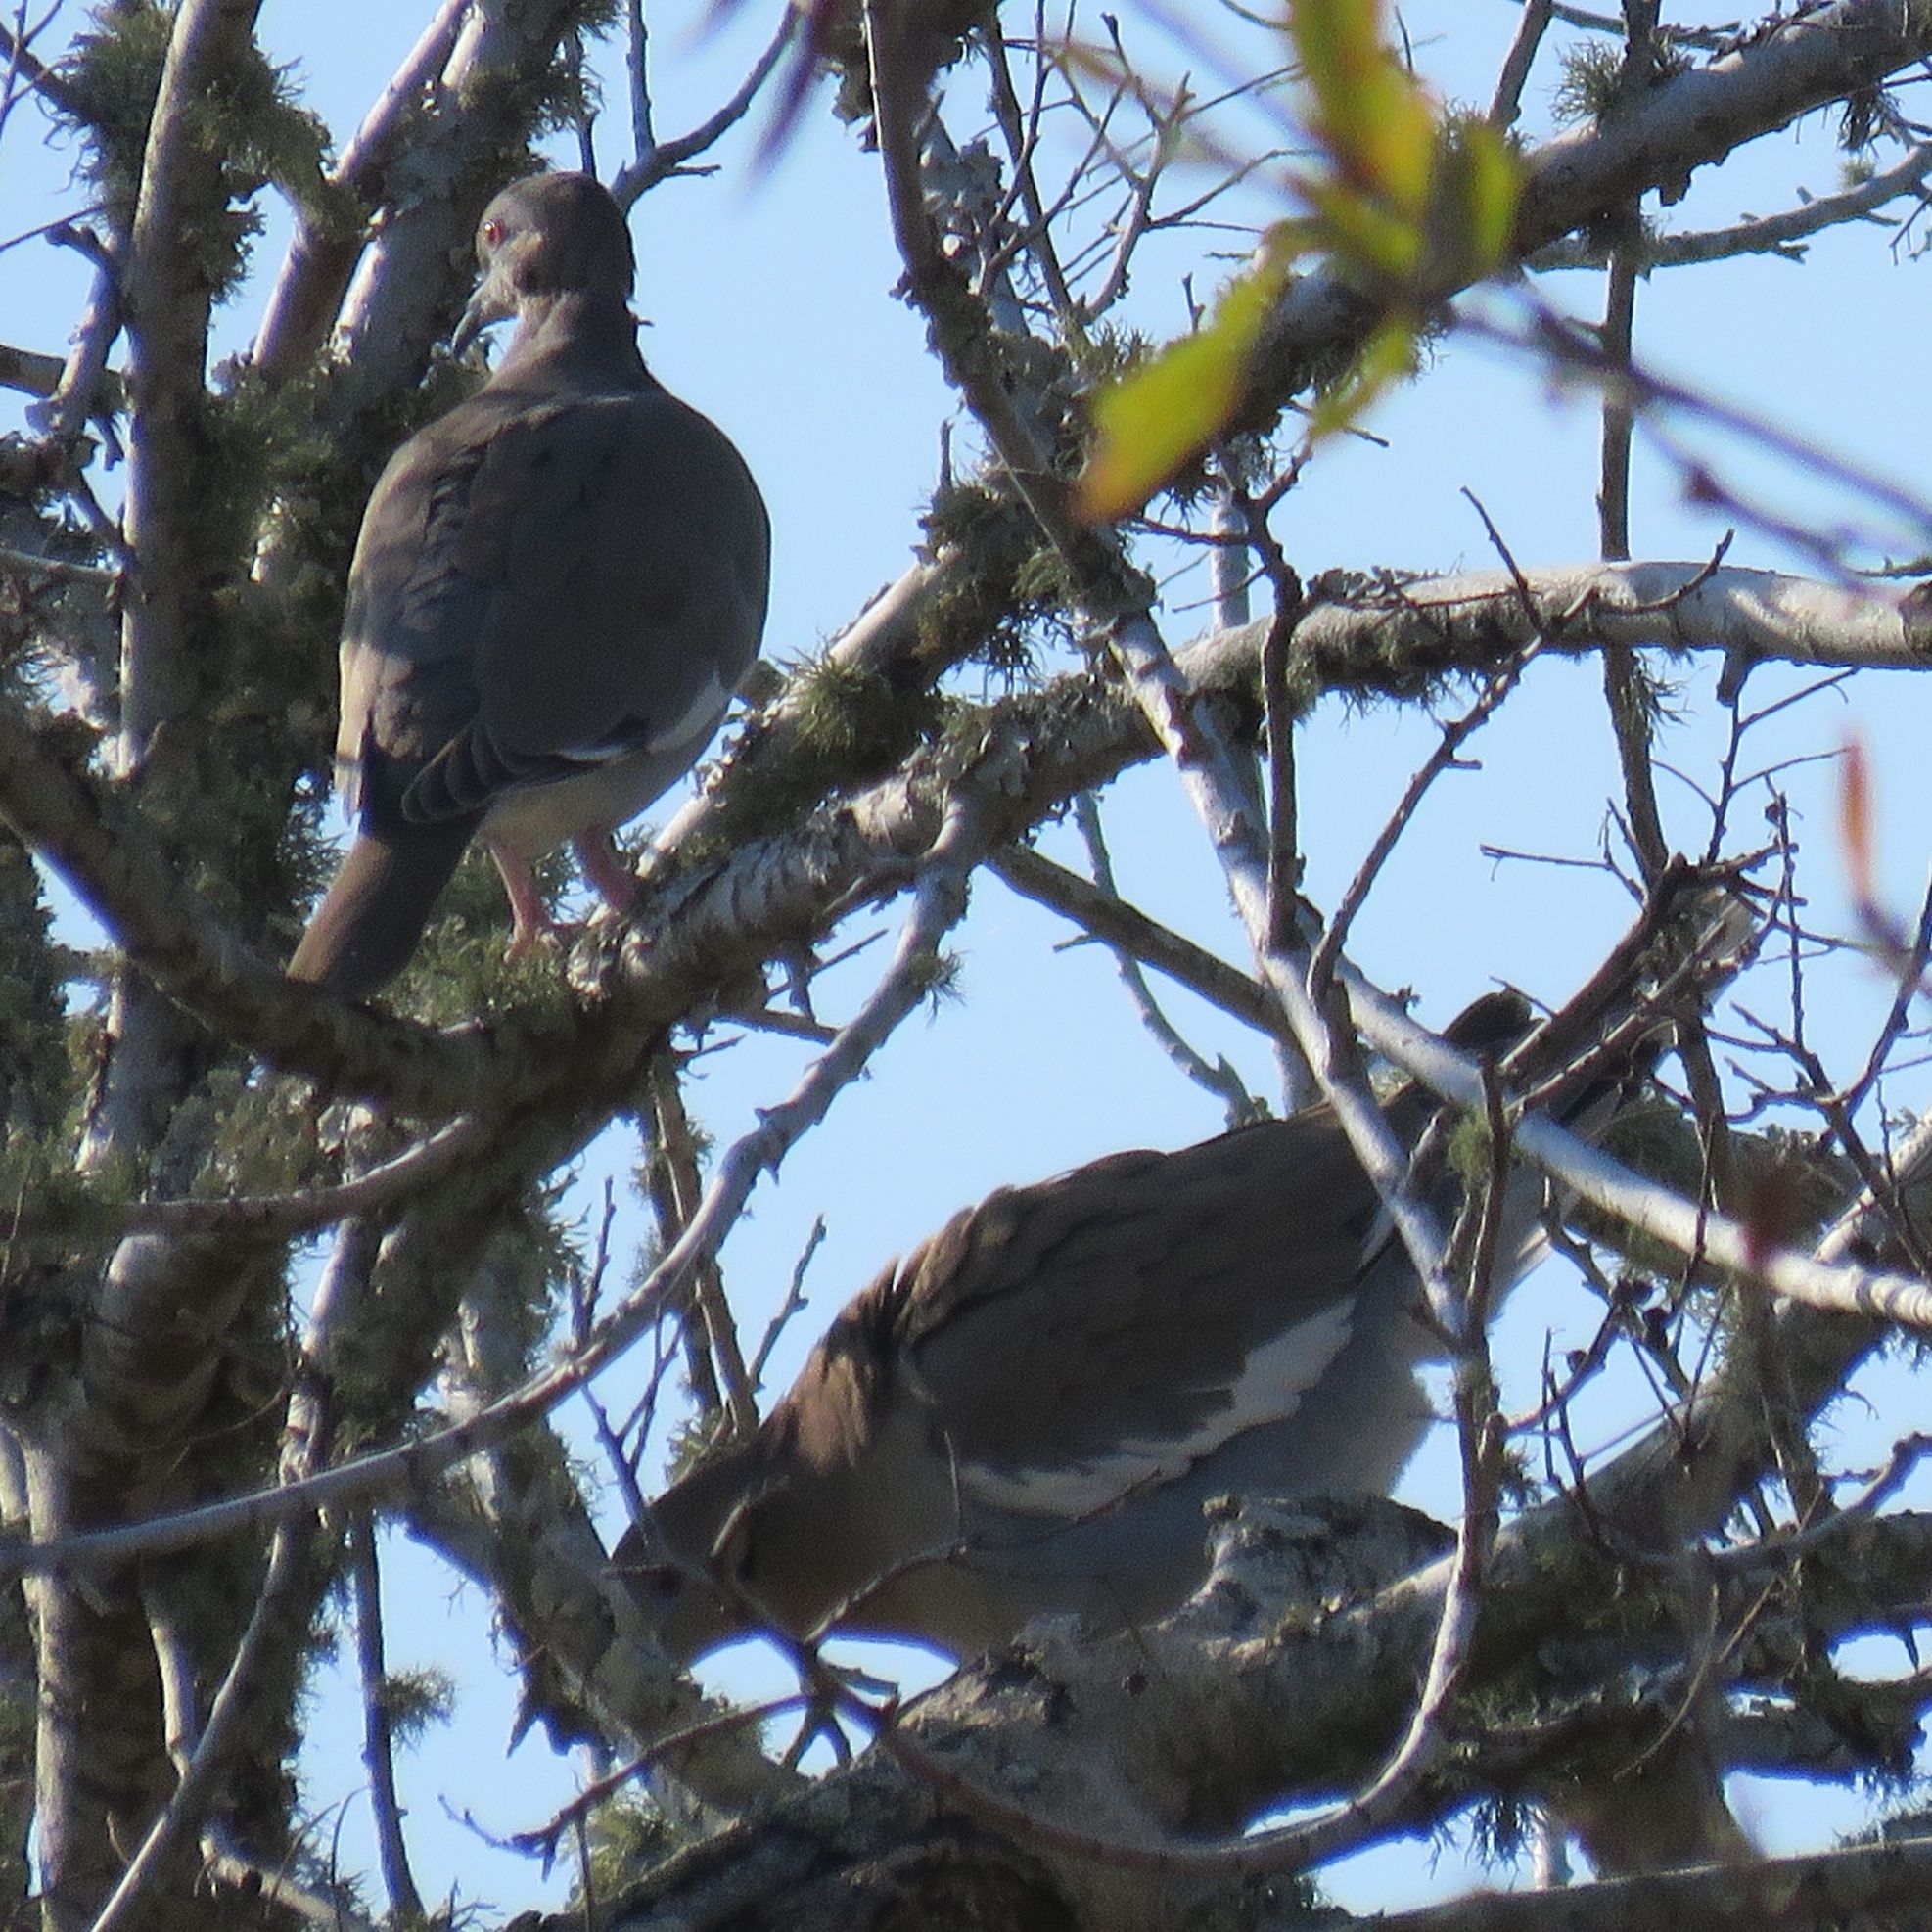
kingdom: Animalia
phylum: Chordata
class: Aves
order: Columbiformes
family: Columbidae
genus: Zenaida
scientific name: Zenaida asiatica
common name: White-winged dove
